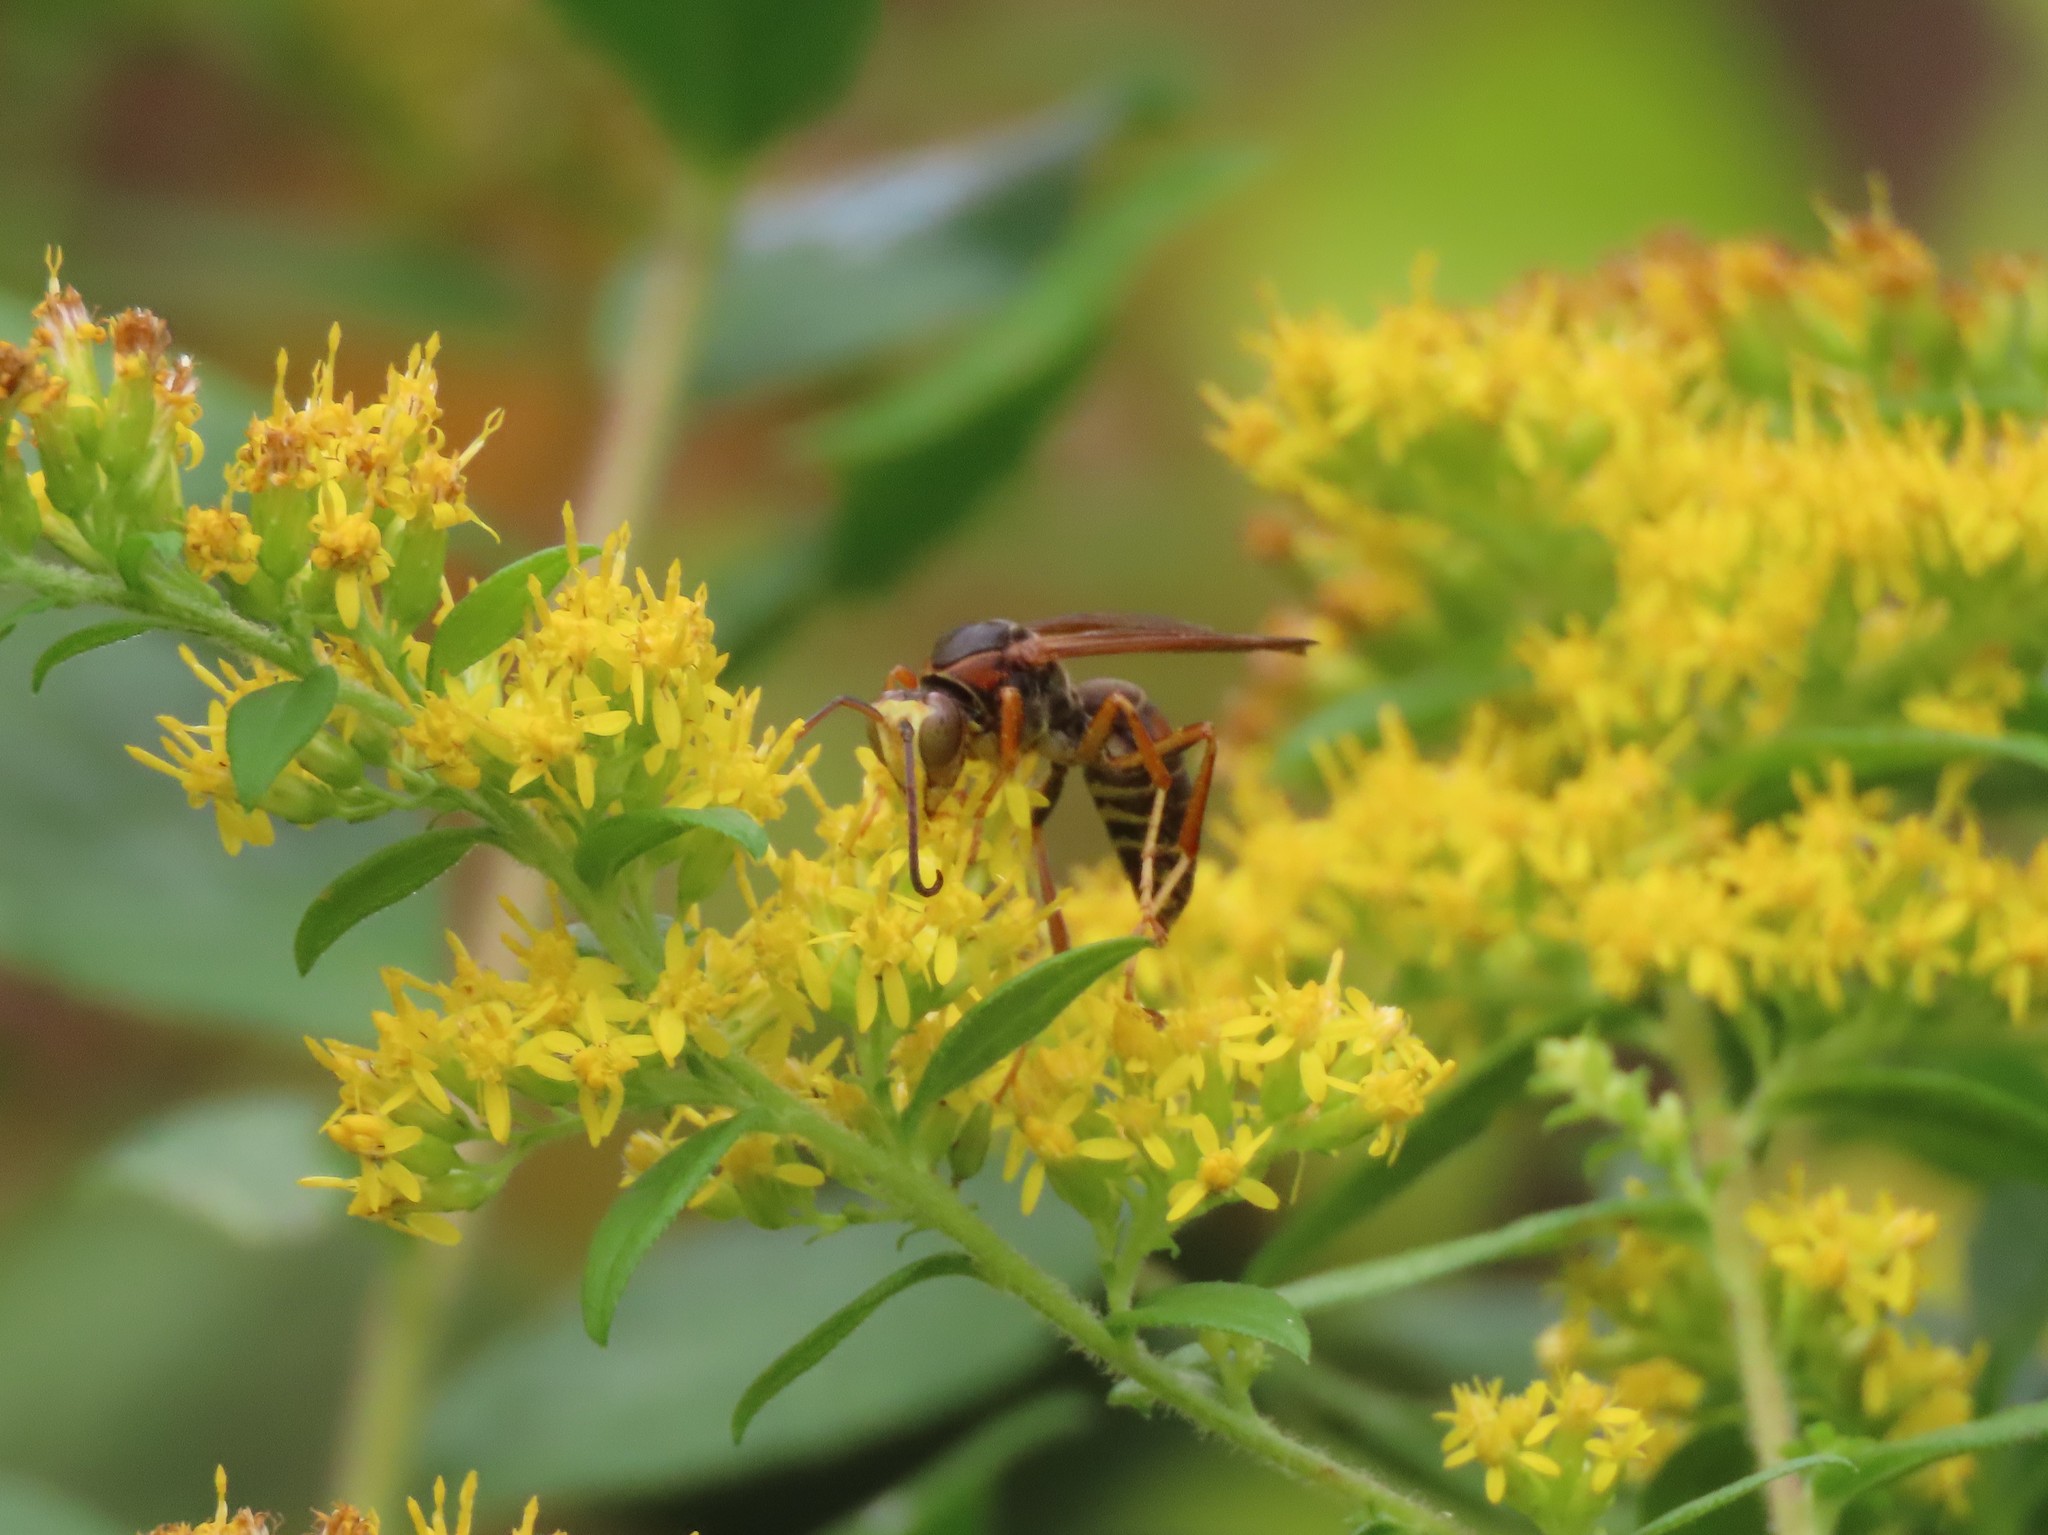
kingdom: Animalia
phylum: Arthropoda
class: Insecta
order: Hymenoptera
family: Eumenidae
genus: Polistes
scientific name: Polistes fuscatus
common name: Dark paper wasp
